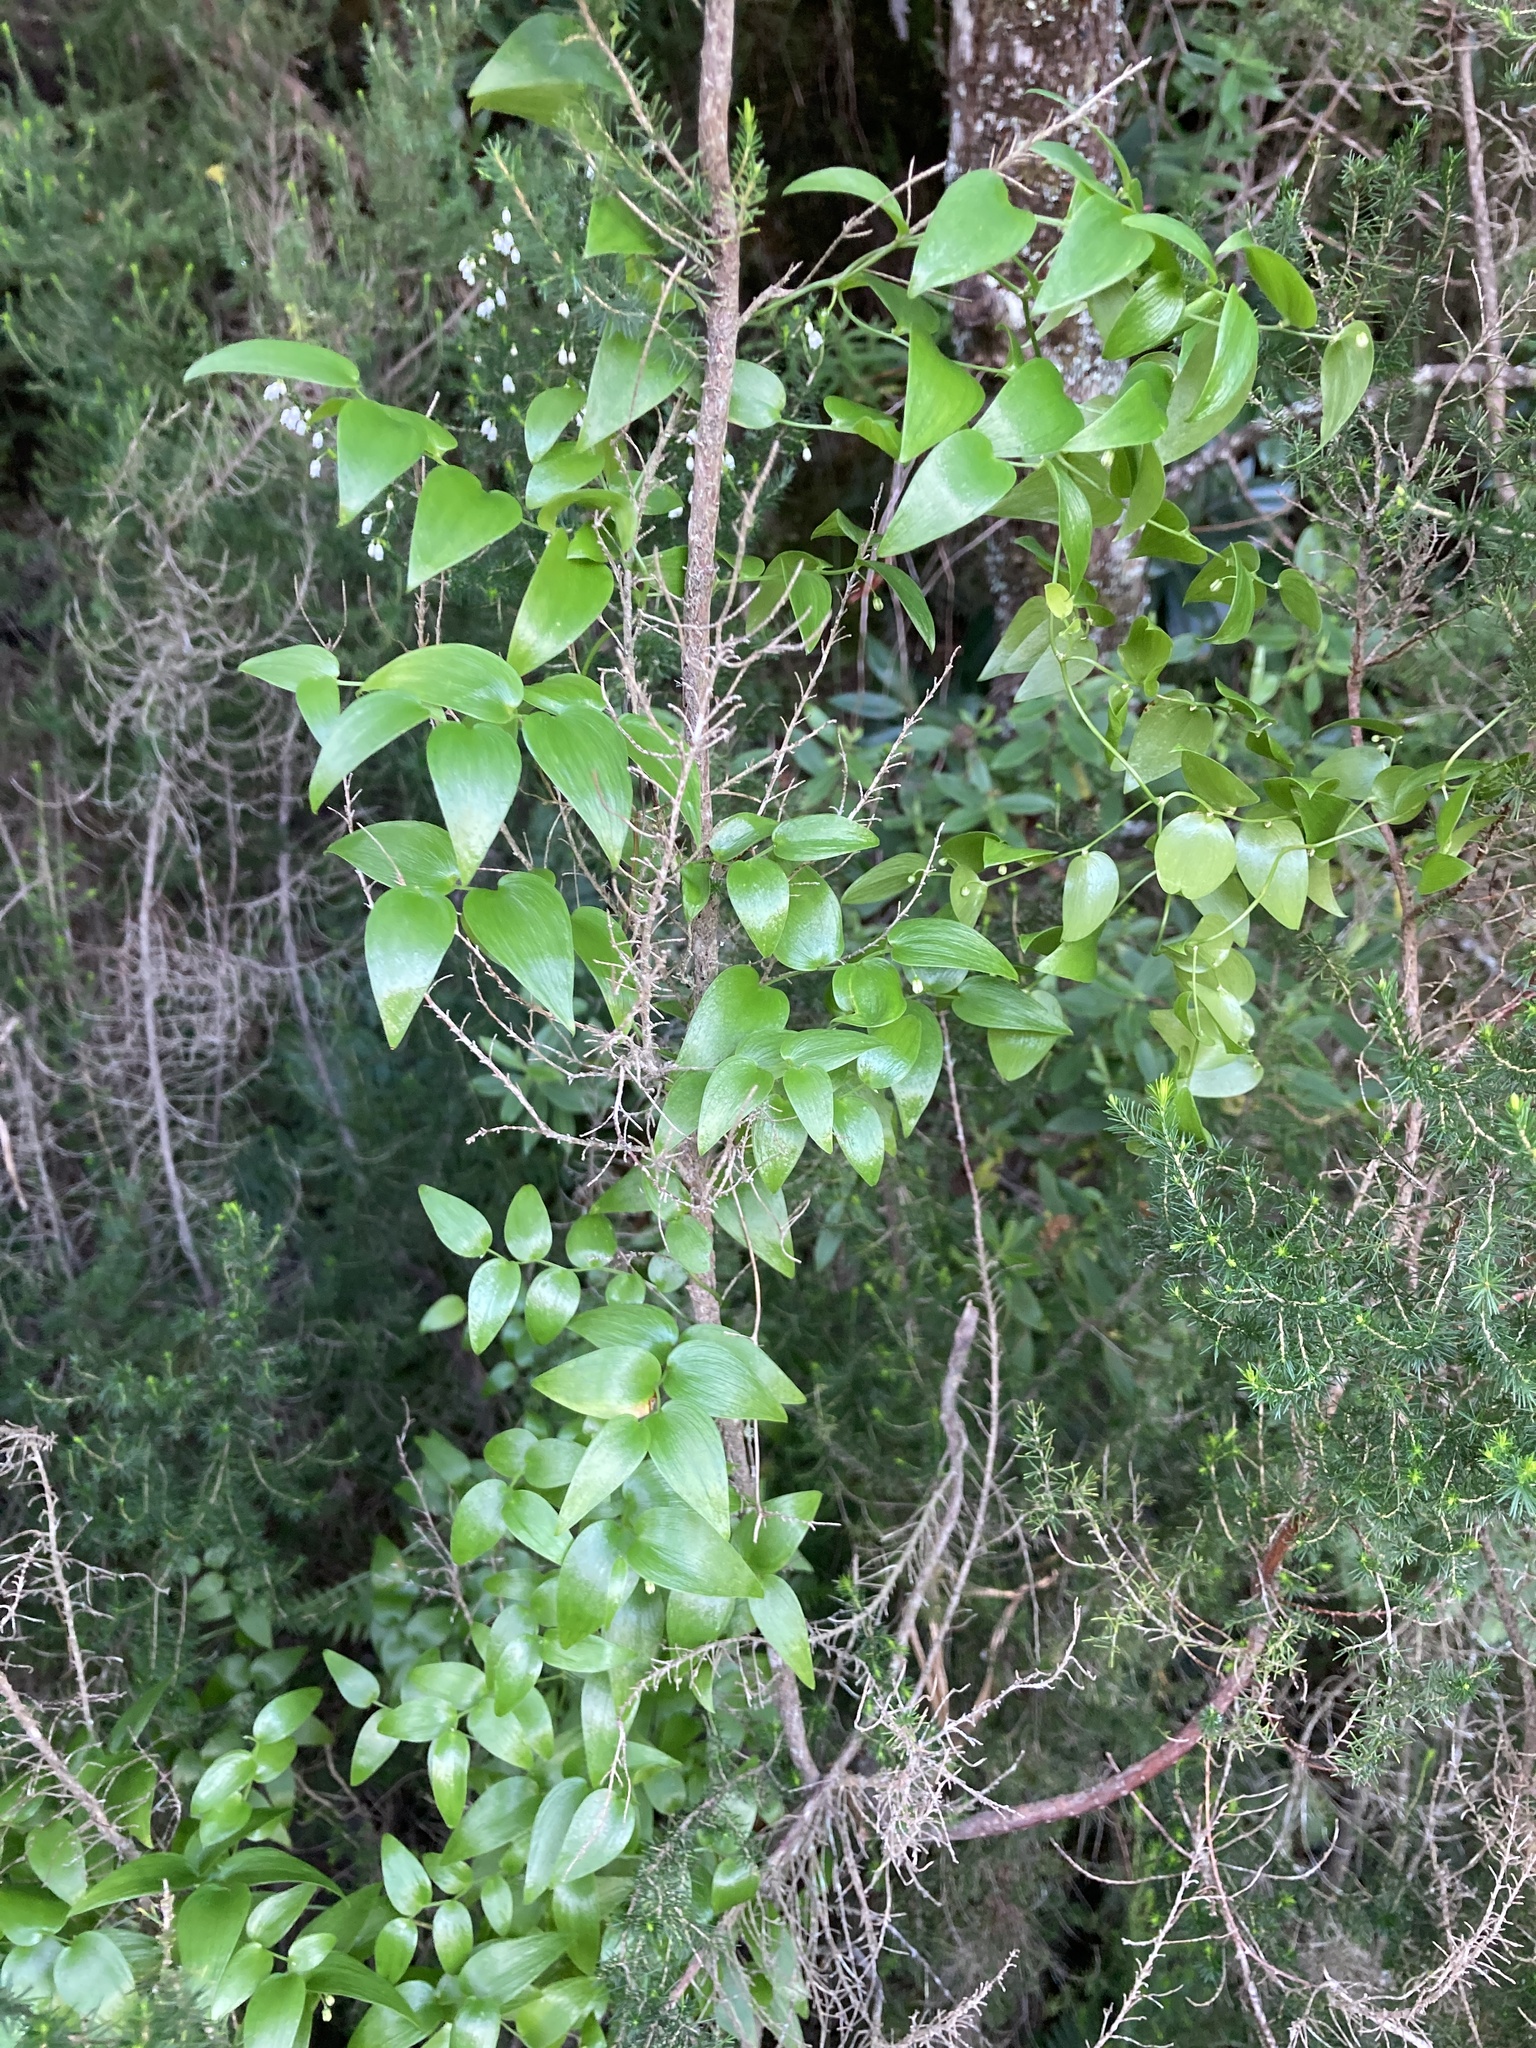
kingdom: Plantae
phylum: Tracheophyta
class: Liliopsida
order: Asparagales
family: Asparagaceae
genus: Asparagus
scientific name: Asparagus asparagoides
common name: African asparagus fern
